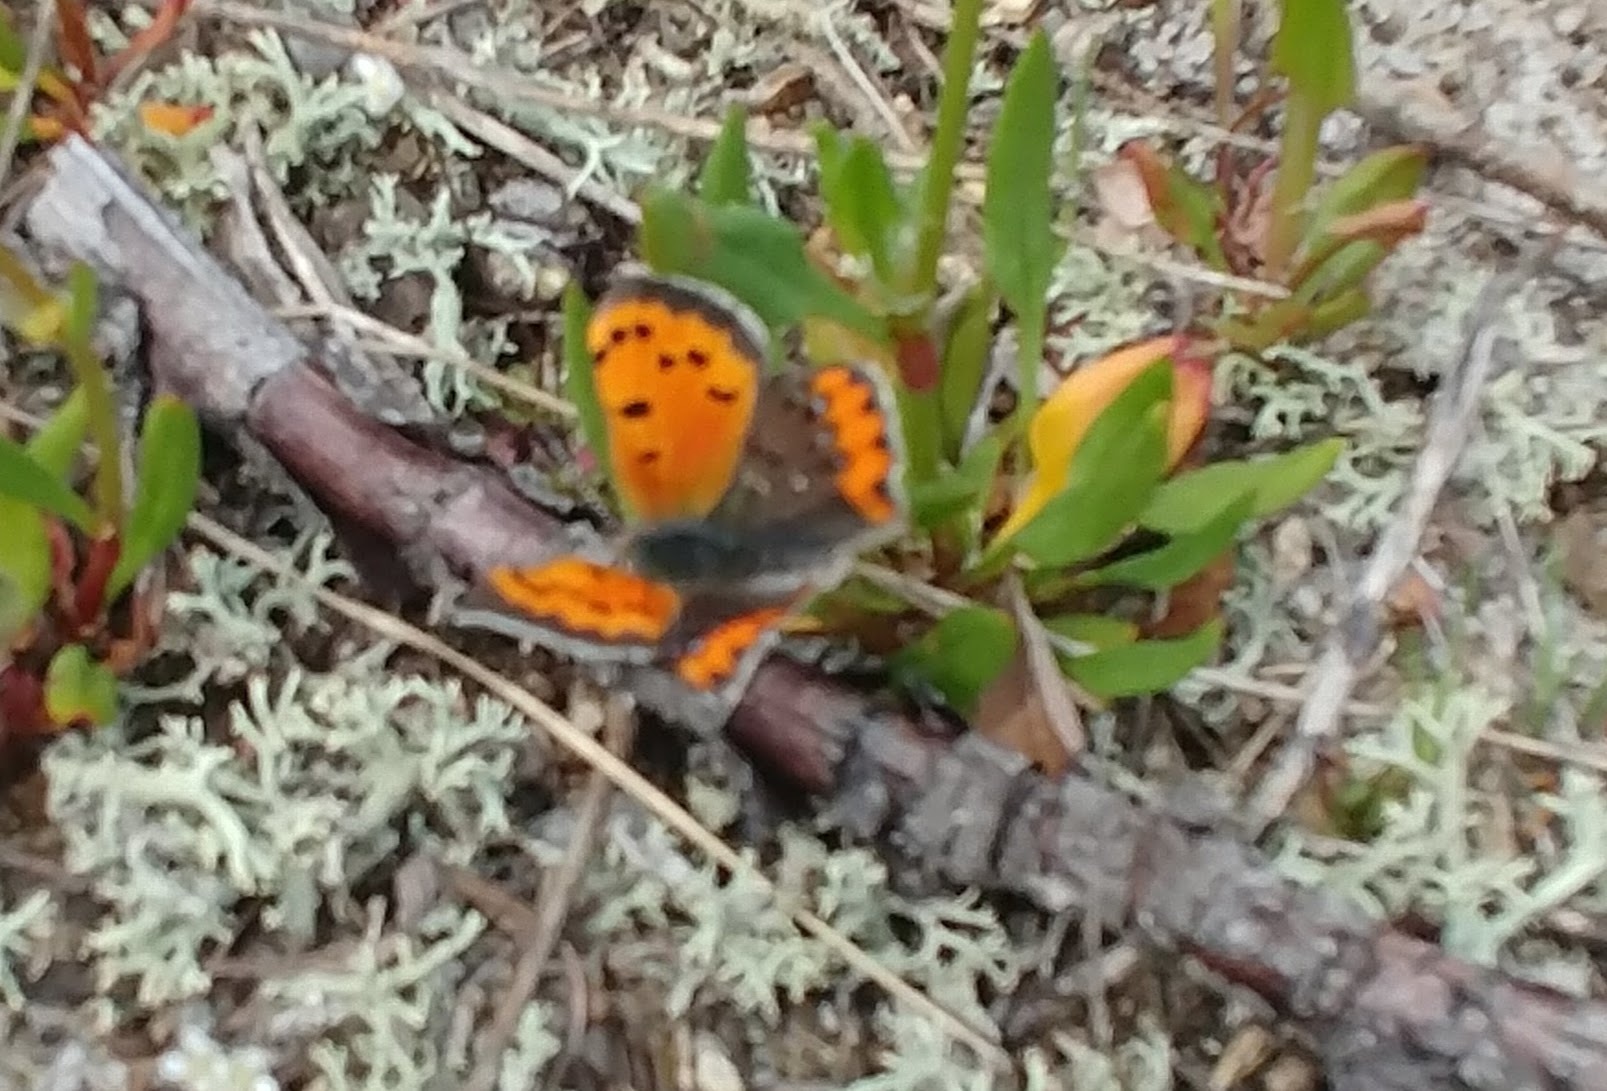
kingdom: Animalia
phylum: Arthropoda
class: Insecta
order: Lepidoptera
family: Lycaenidae
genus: Lycaena
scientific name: Lycaena hypophlaeas
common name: American copper
